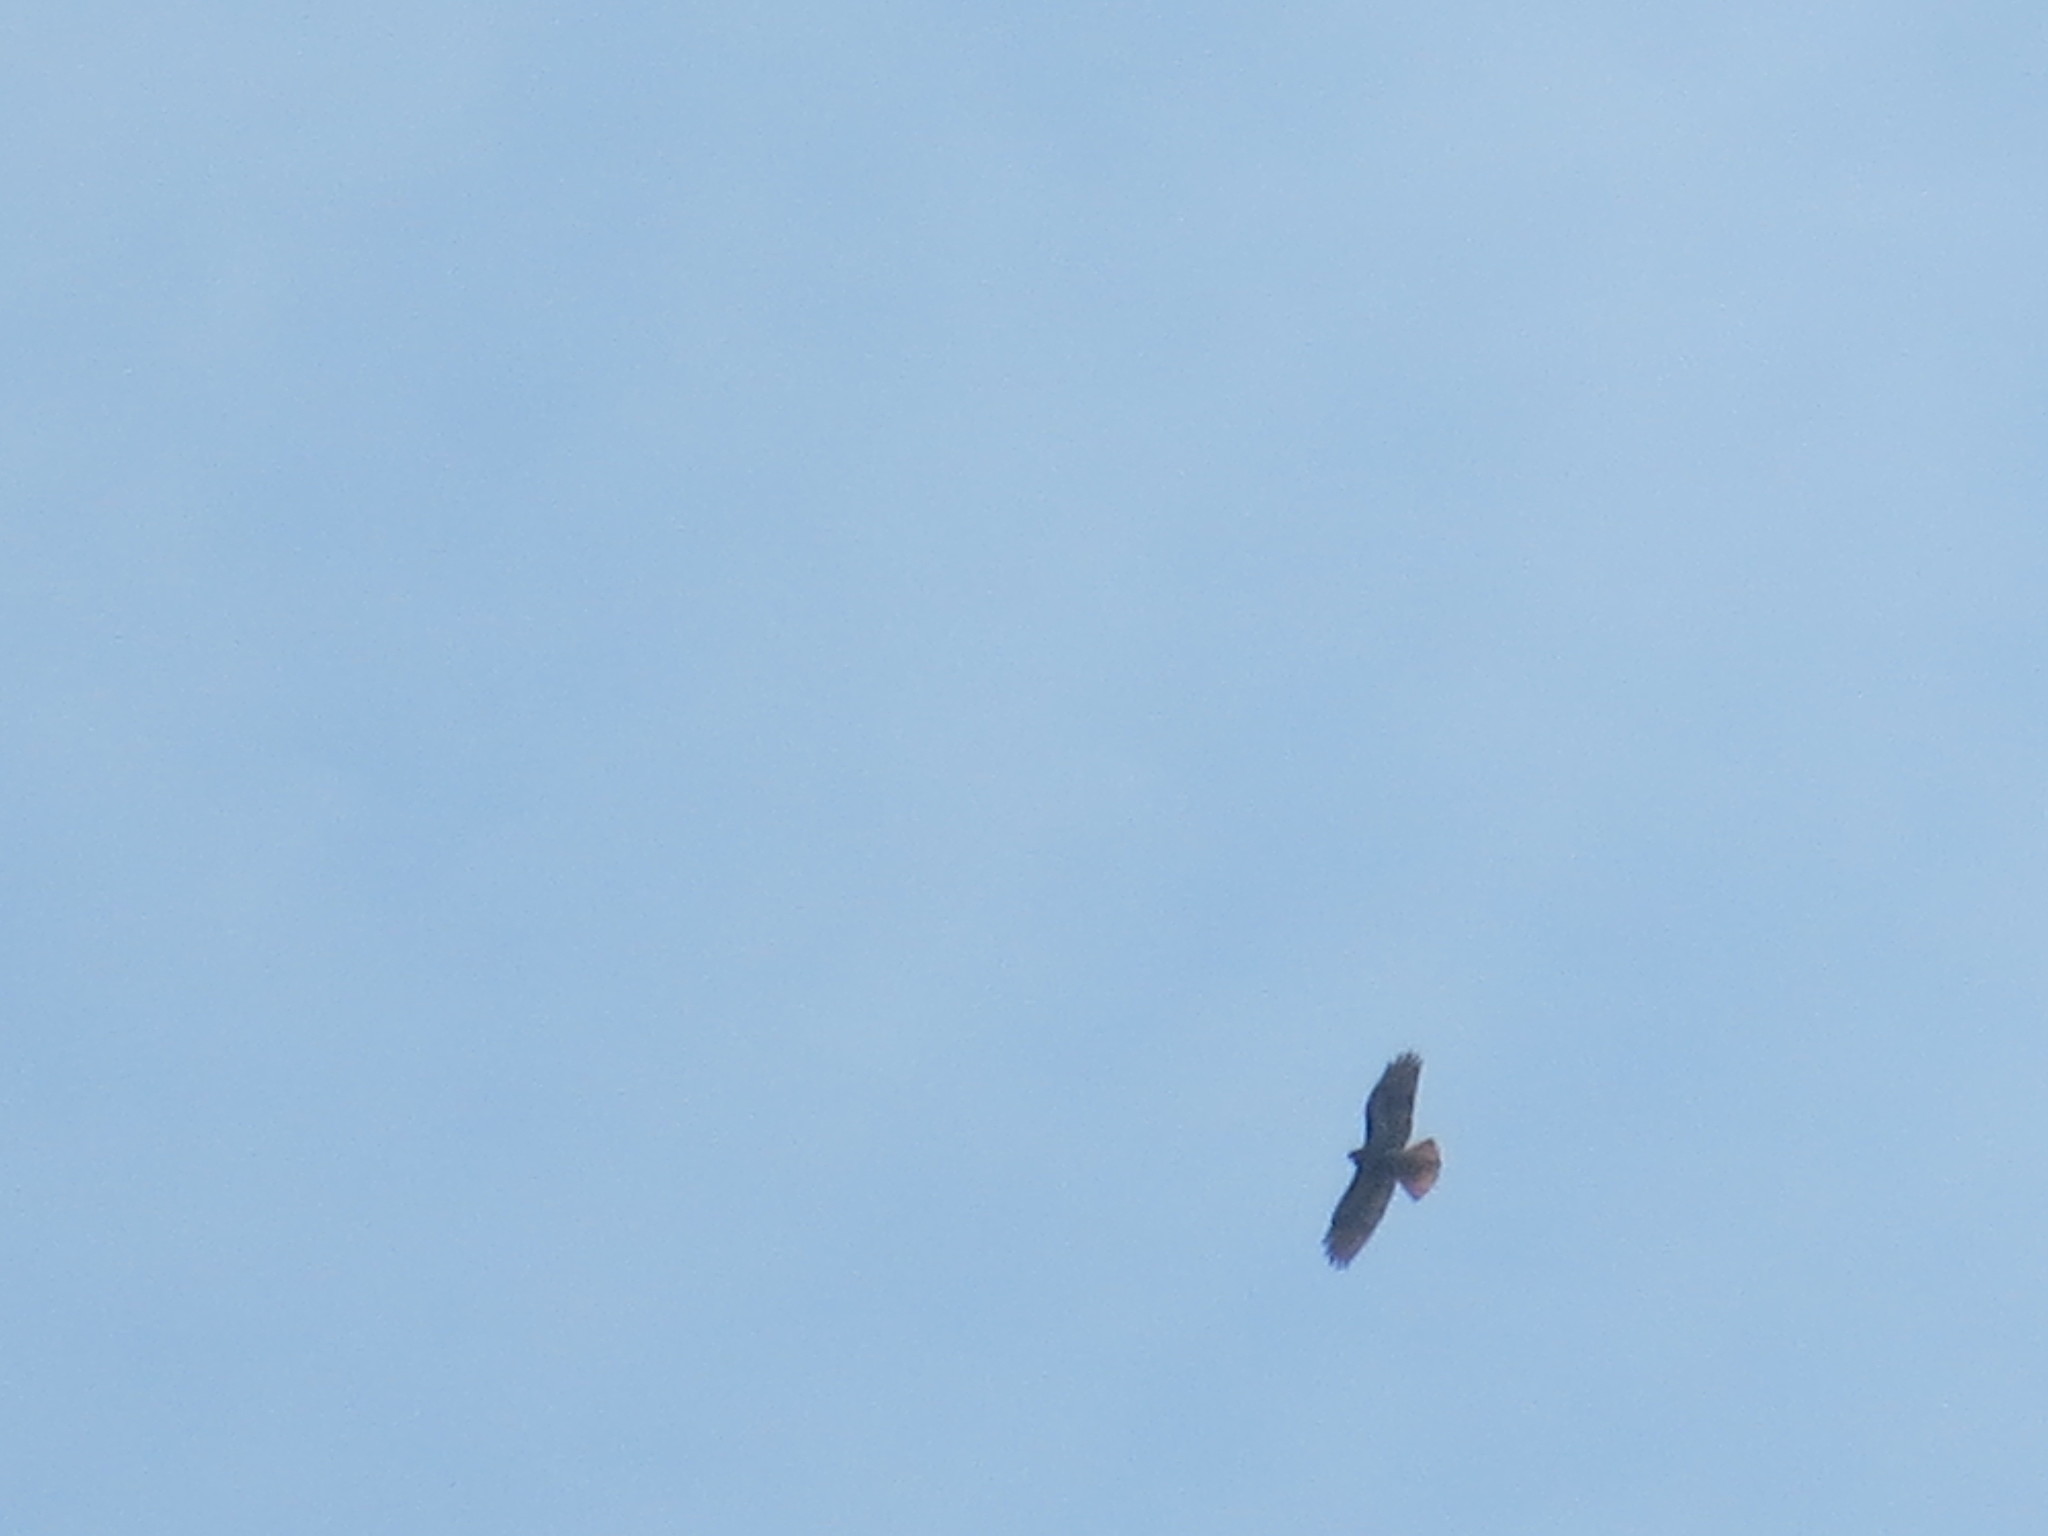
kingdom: Animalia
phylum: Chordata
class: Aves
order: Accipitriformes
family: Accipitridae
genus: Buteo
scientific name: Buteo jamaicensis
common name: Red-tailed hawk
